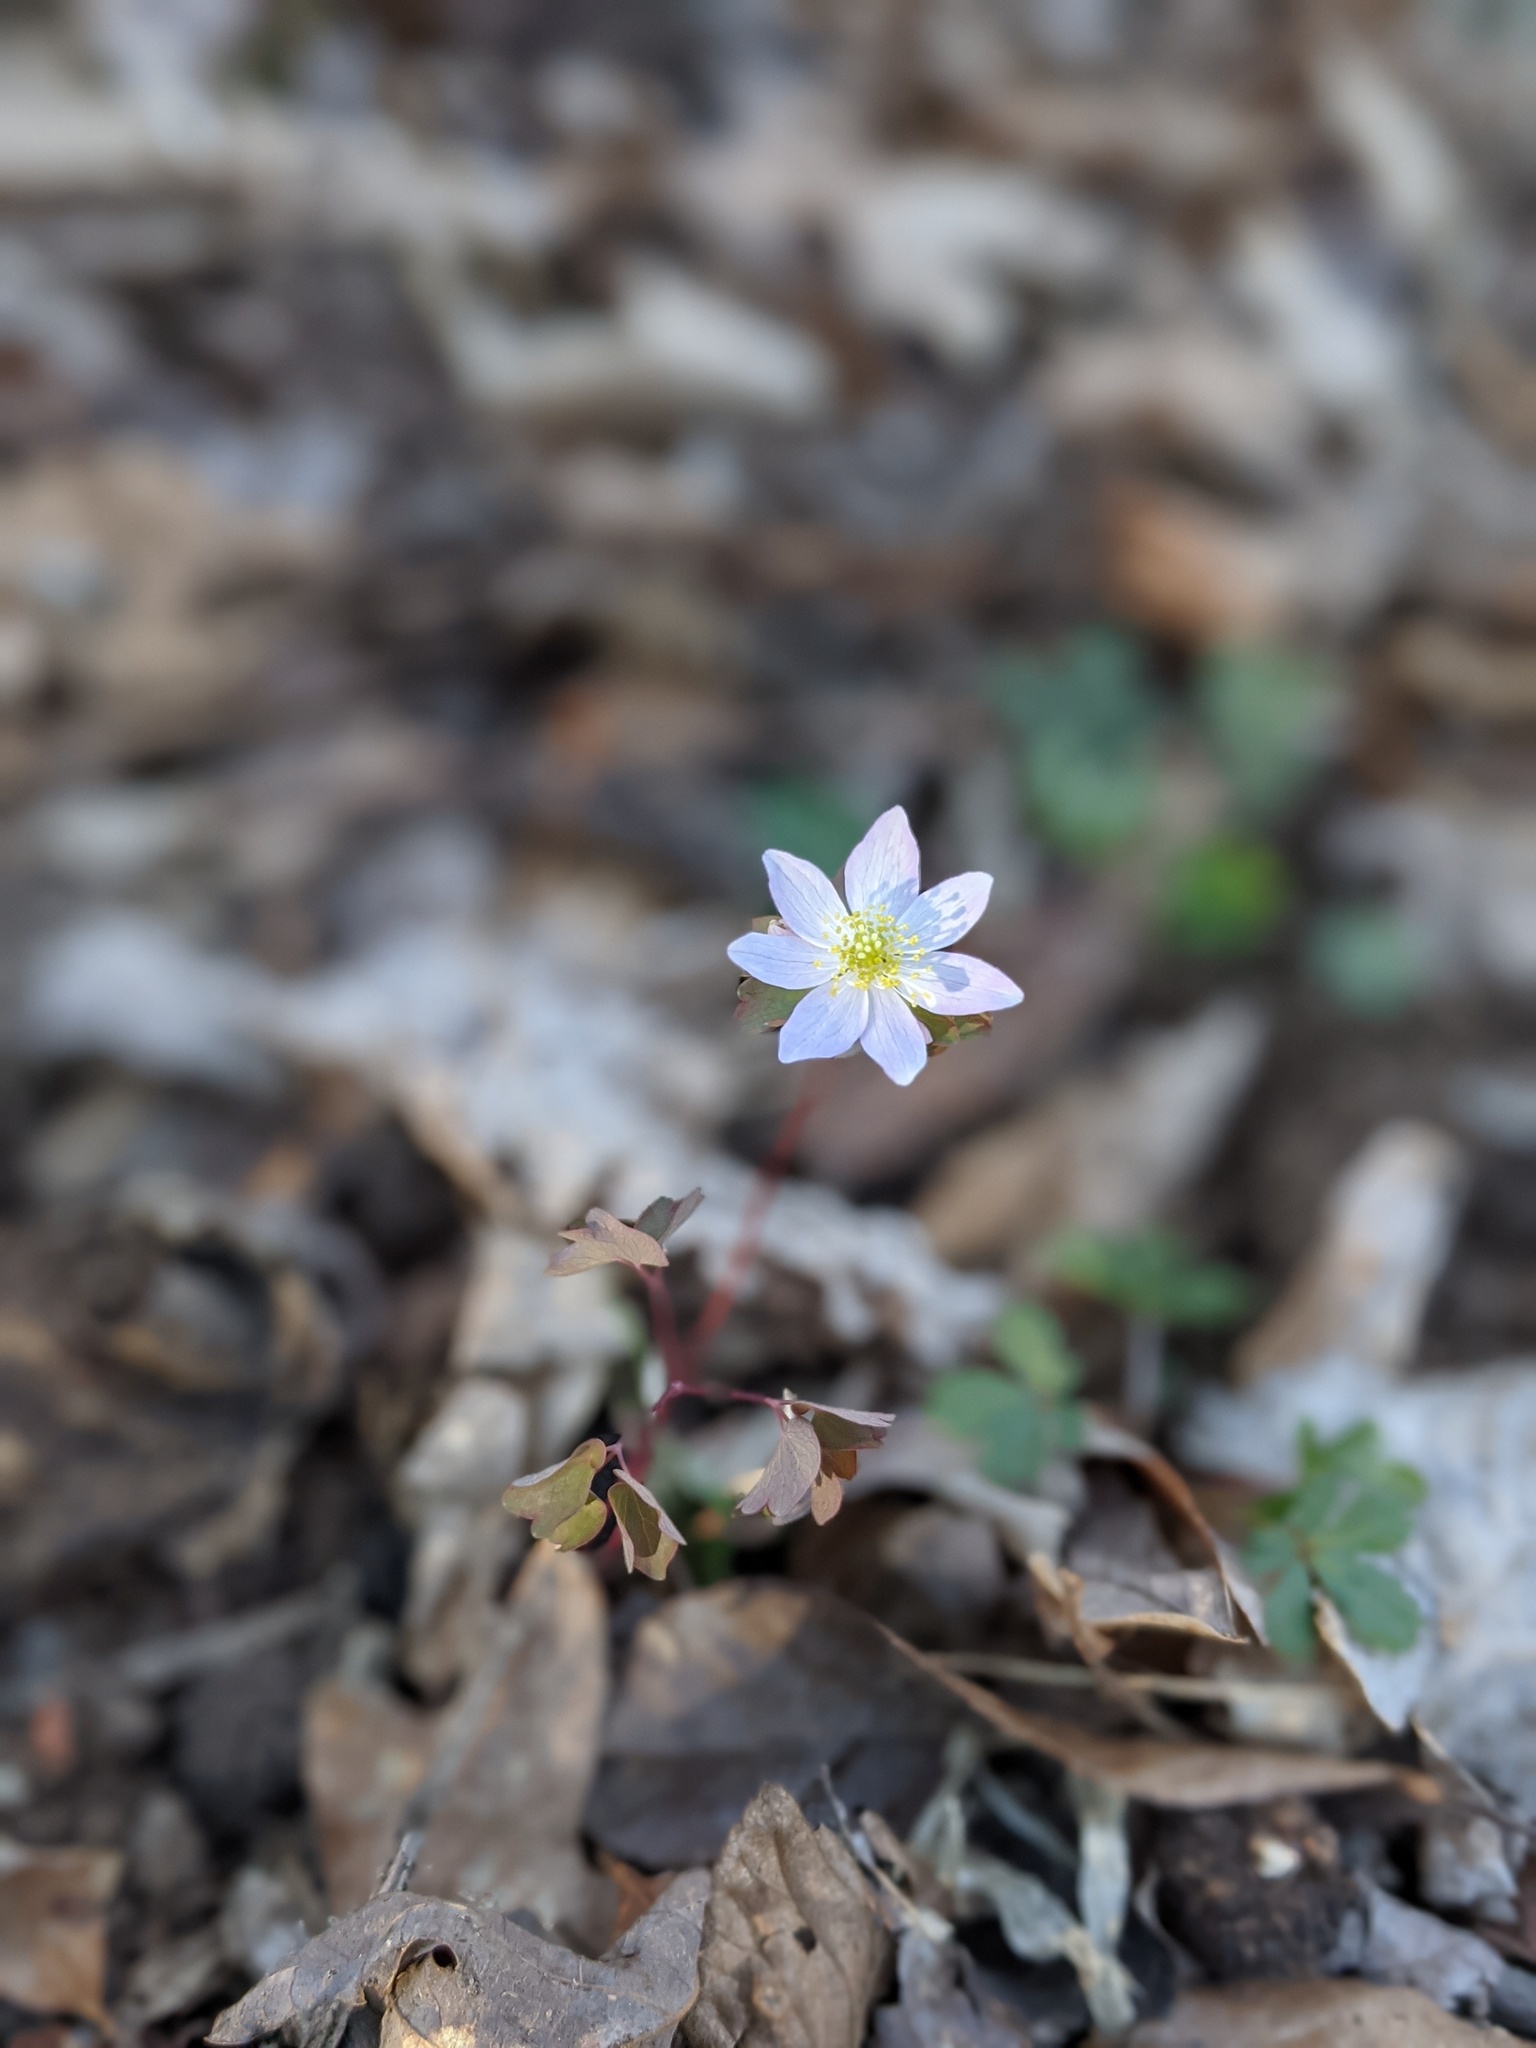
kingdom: Plantae
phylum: Tracheophyta
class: Magnoliopsida
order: Ranunculales
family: Ranunculaceae
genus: Thalictrum
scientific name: Thalictrum thalictroides
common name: Rue-anemone
